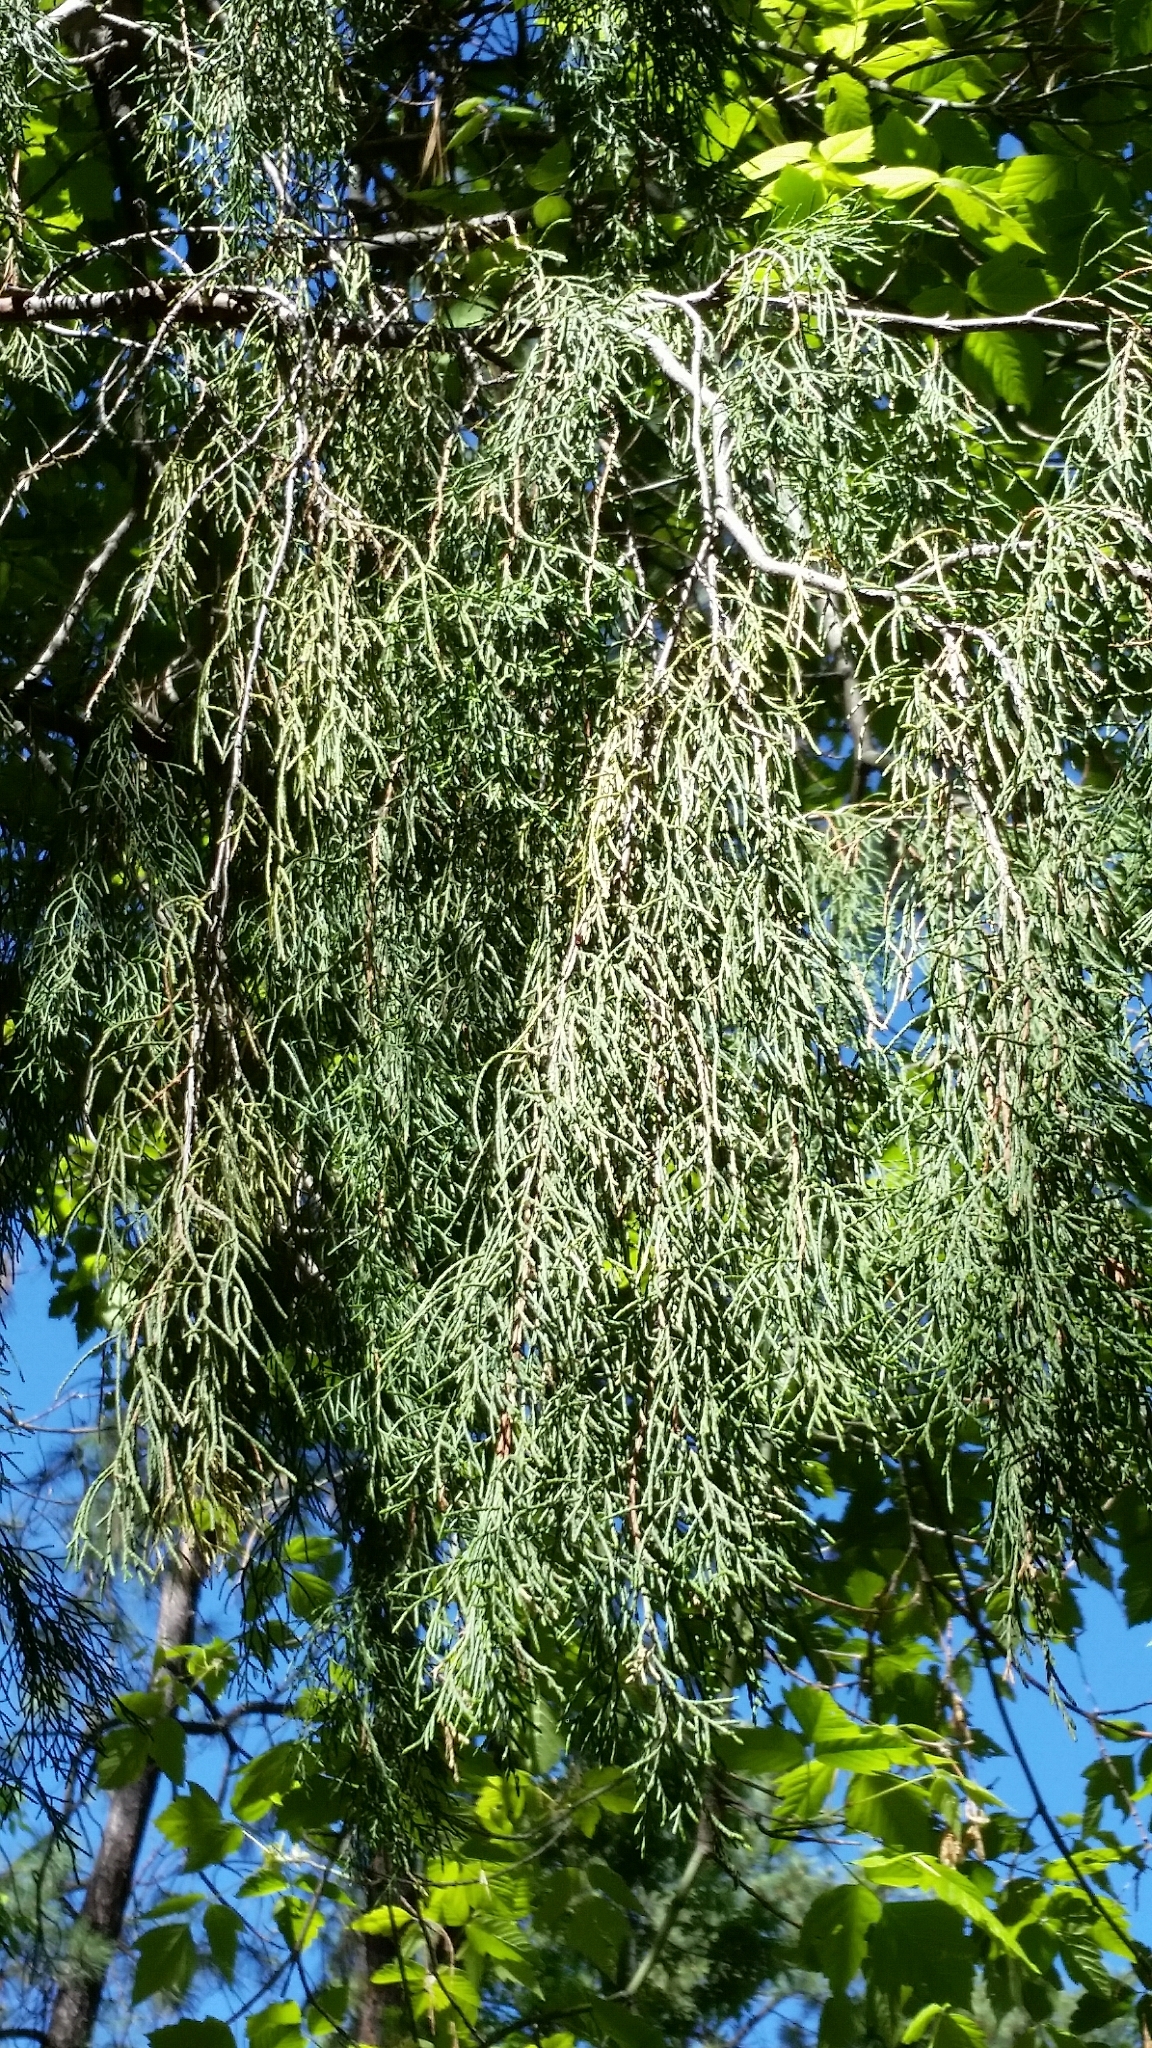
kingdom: Plantae
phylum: Tracheophyta
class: Pinopsida
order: Pinales
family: Cupressaceae
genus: Juniperus
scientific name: Juniperus scopulorum
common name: Rocky mountain juniper
